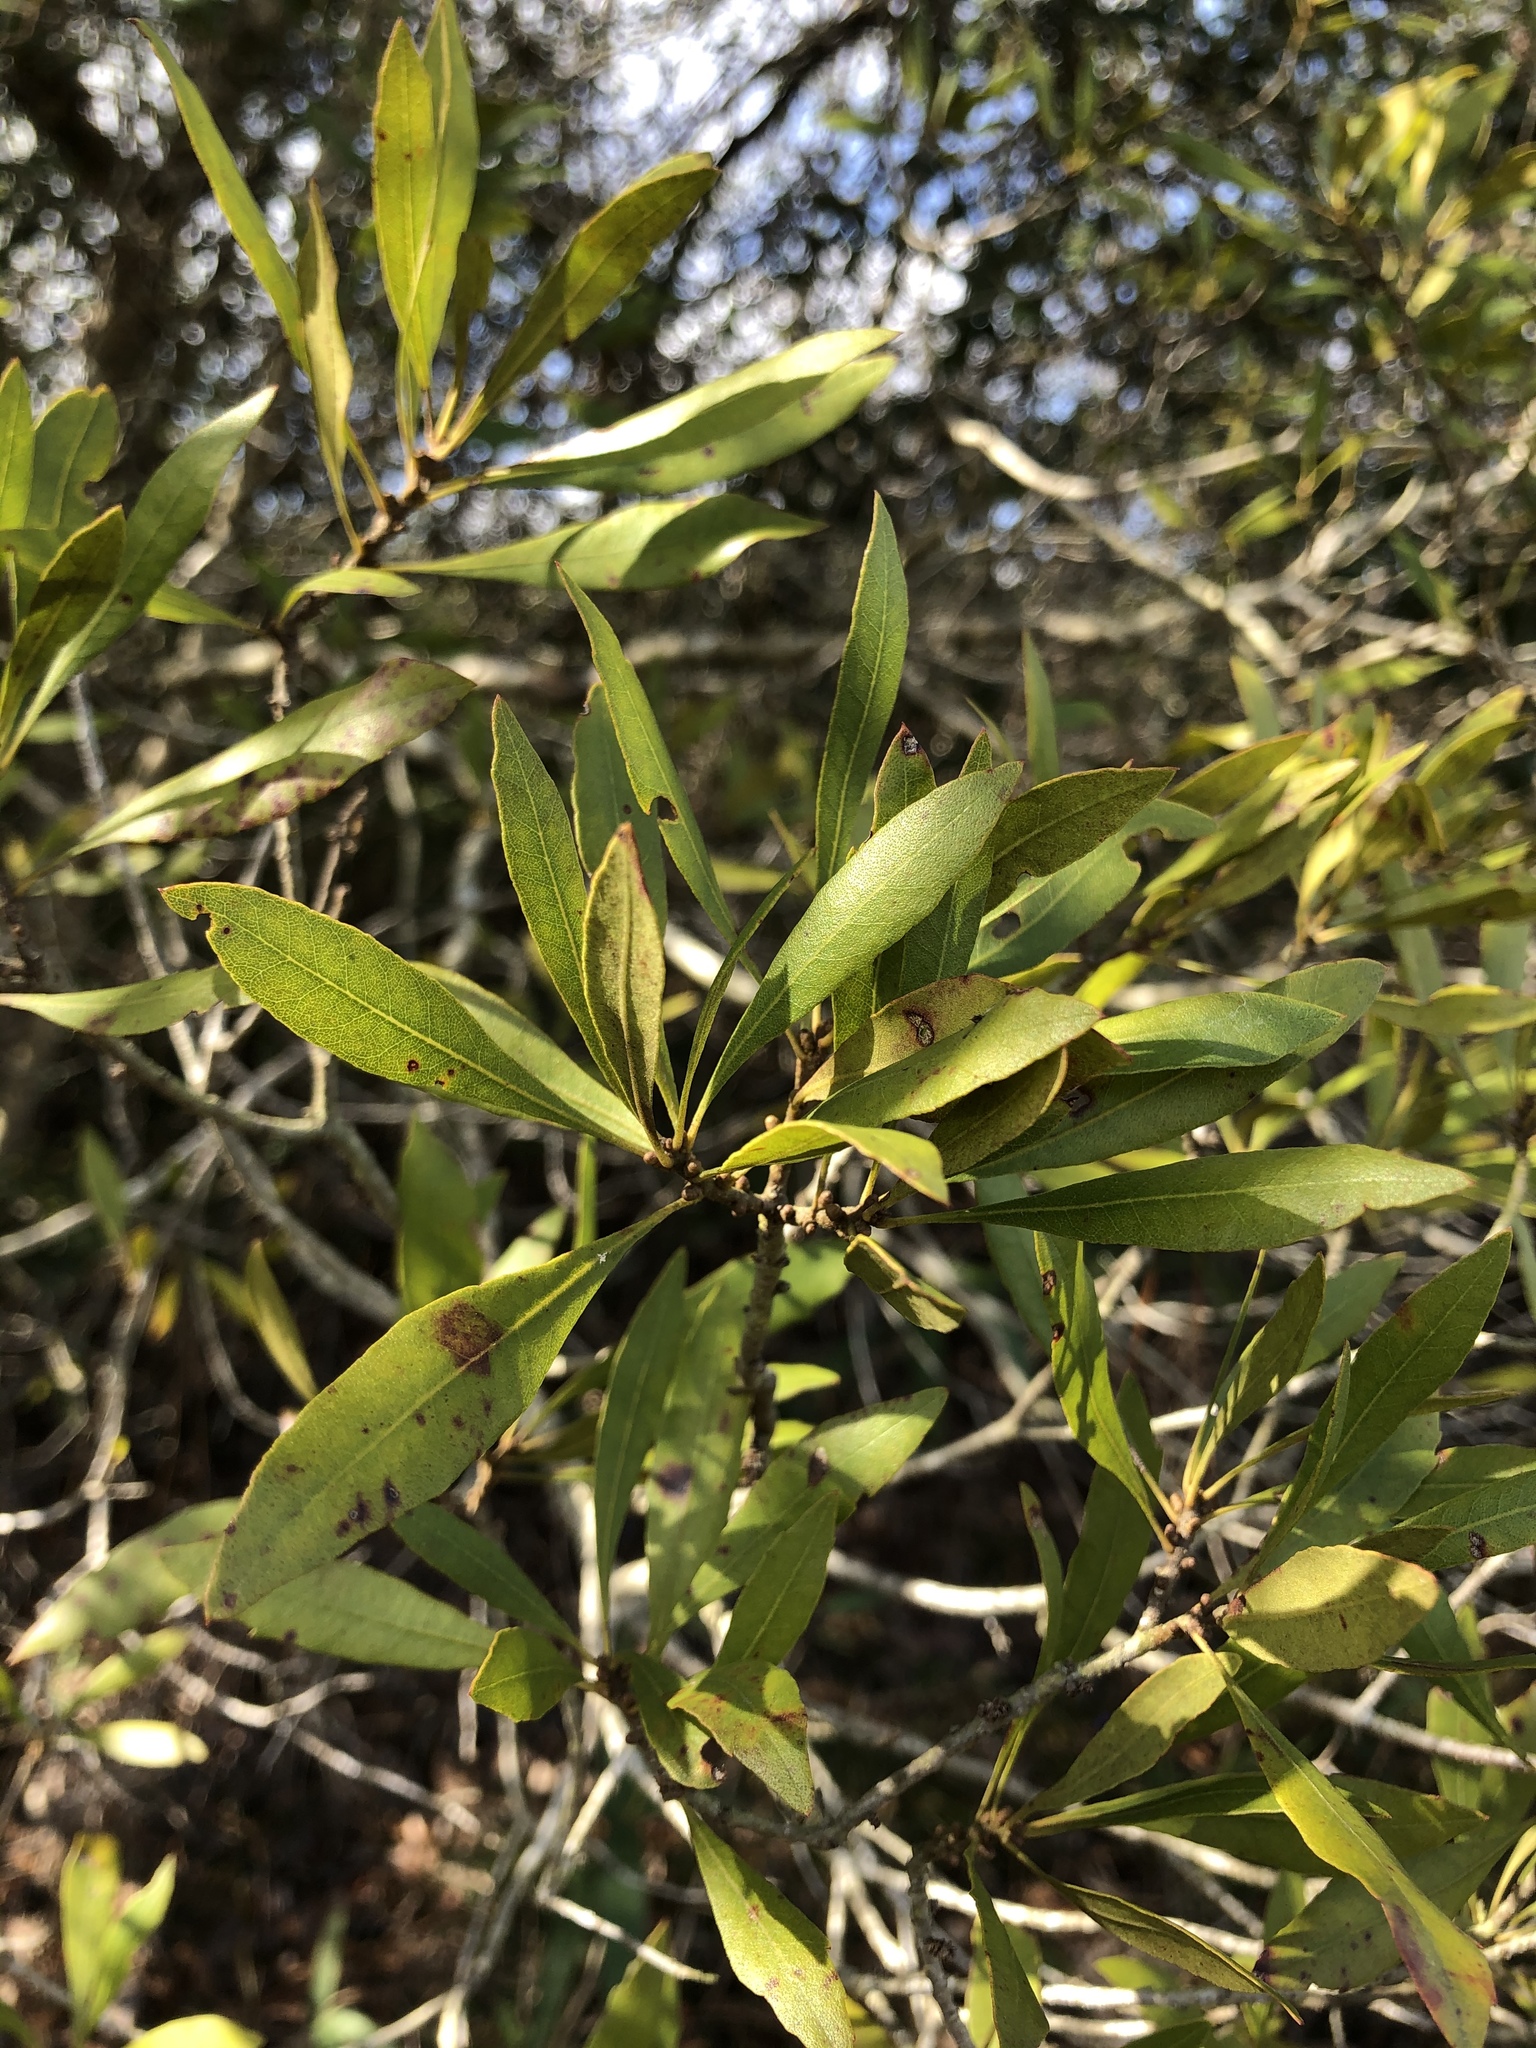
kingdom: Plantae
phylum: Tracheophyta
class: Magnoliopsida
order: Fagales
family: Myricaceae
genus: Morella
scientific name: Morella cerifera
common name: Wax myrtle
